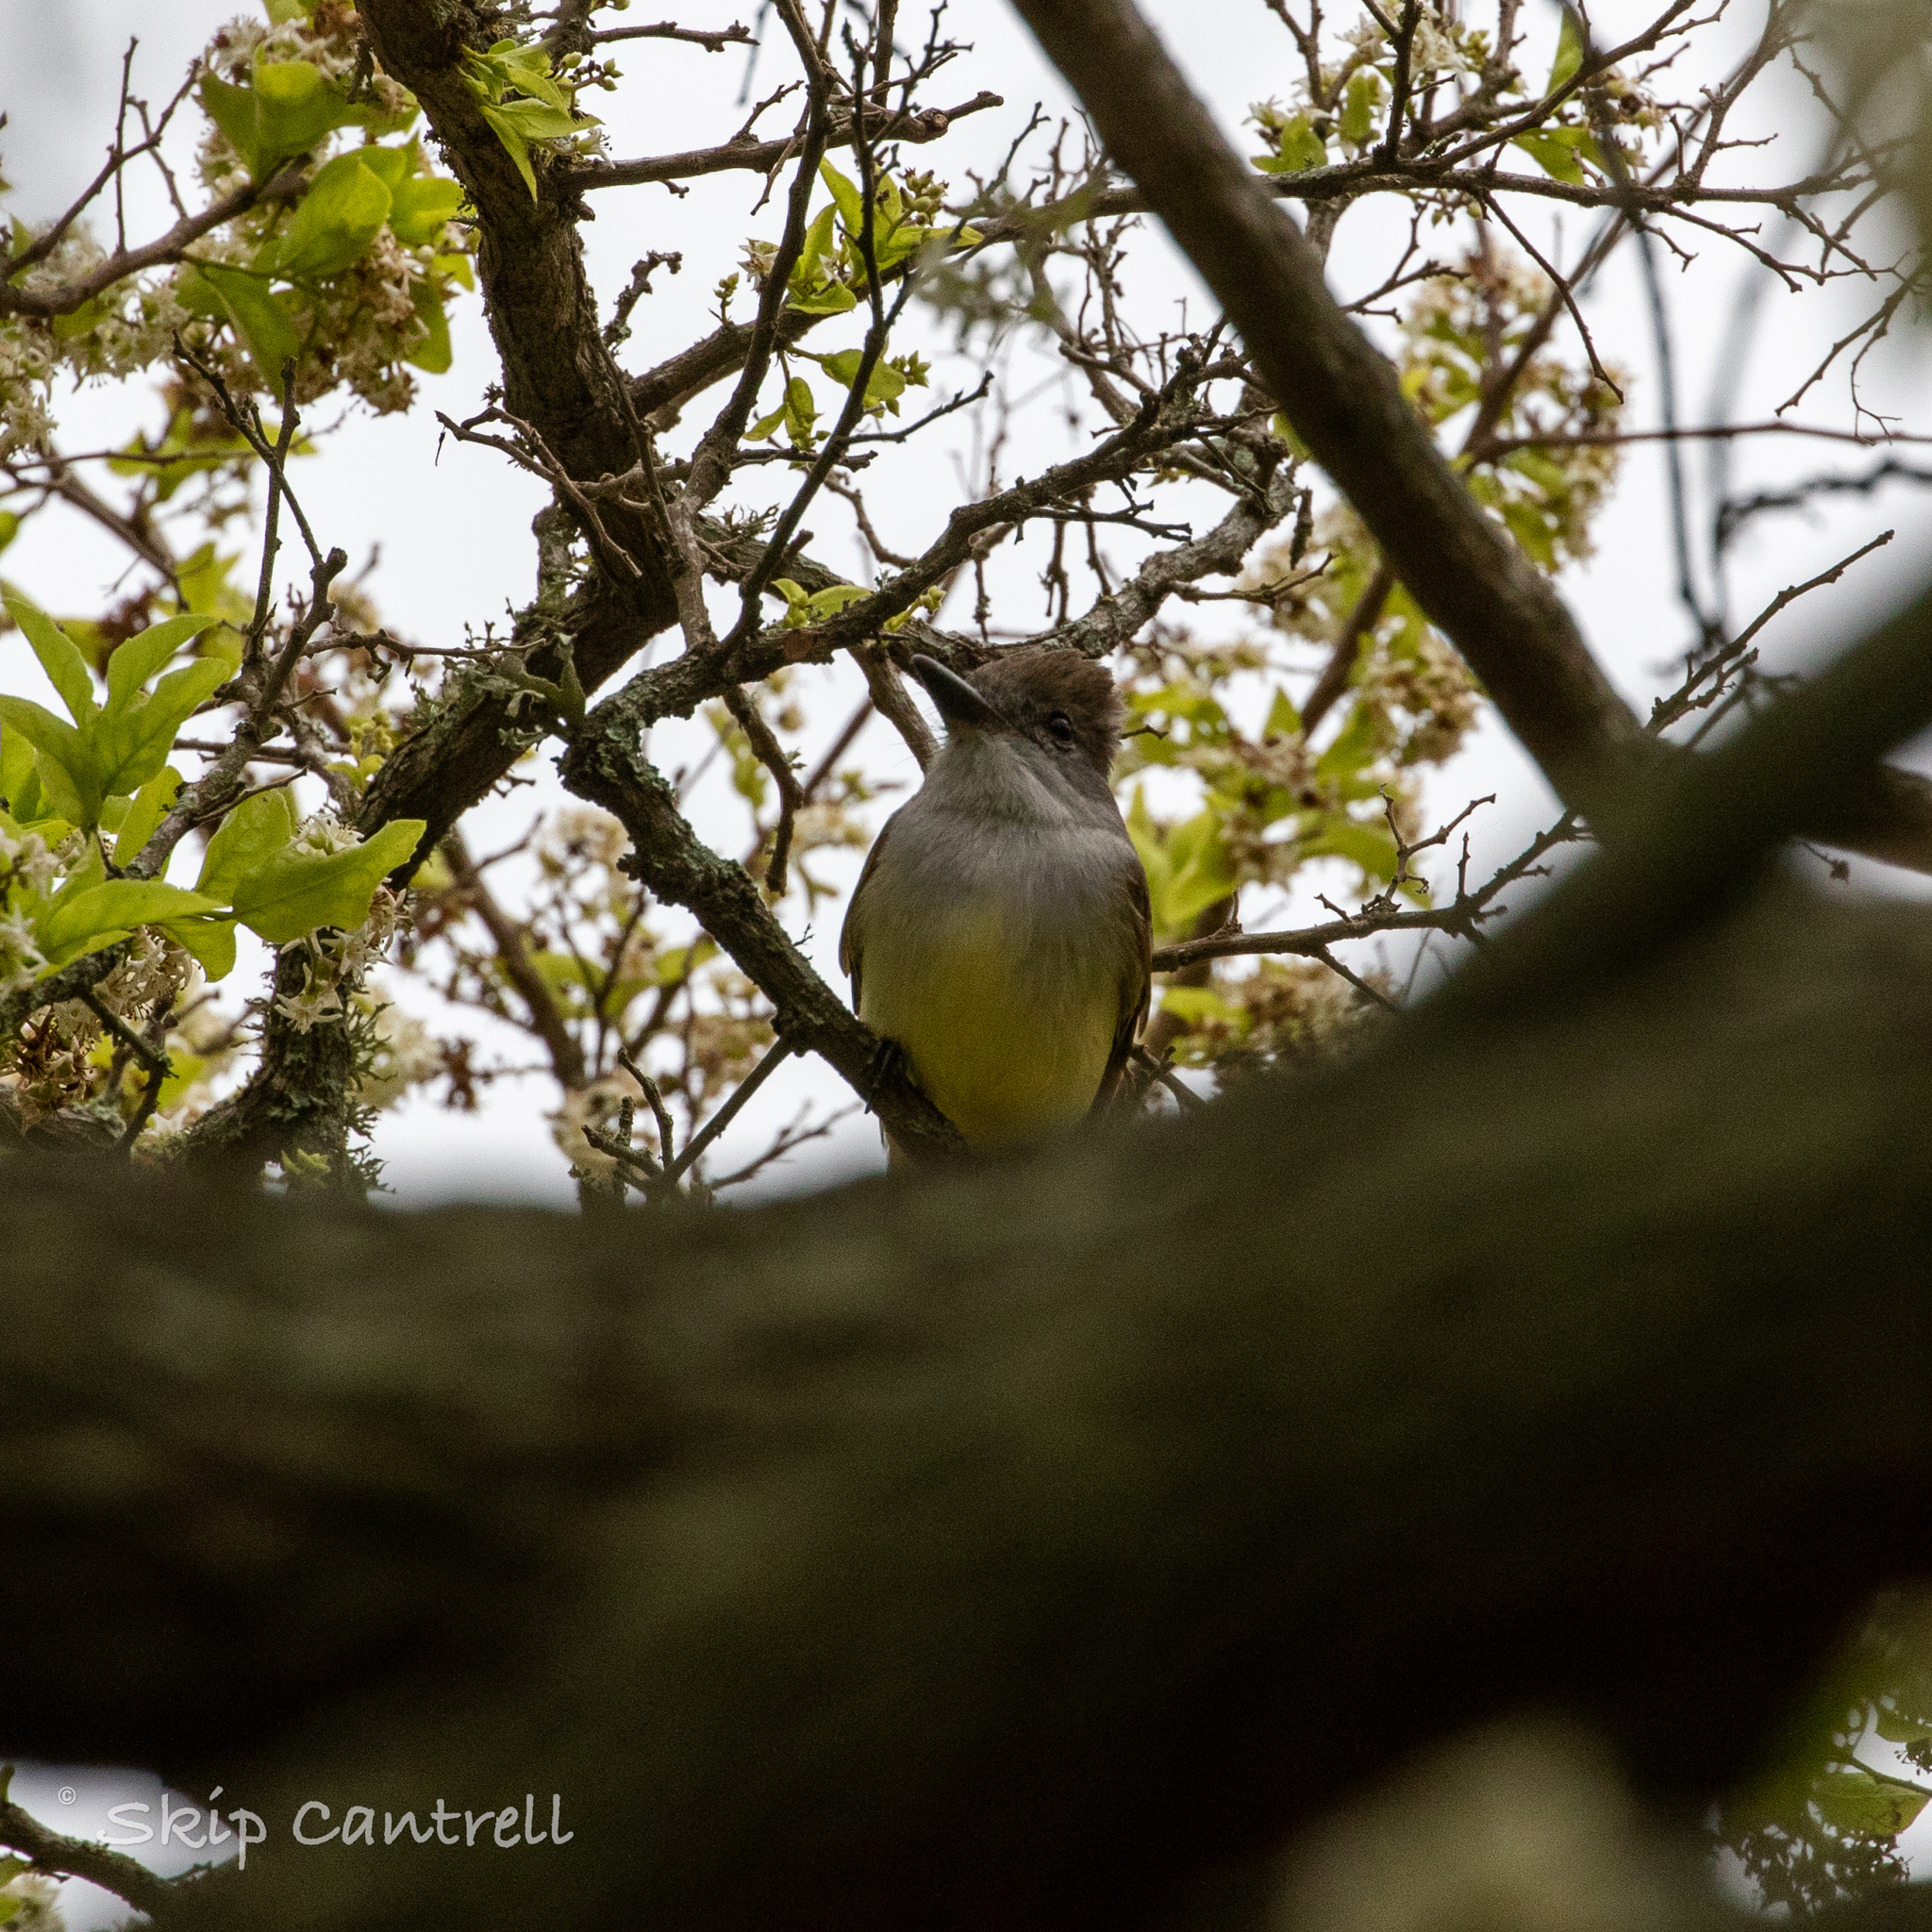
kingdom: Animalia
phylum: Chordata
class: Aves
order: Passeriformes
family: Tyrannidae
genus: Myiarchus
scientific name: Myiarchus tyrannulus
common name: Brown-crested flycatcher
